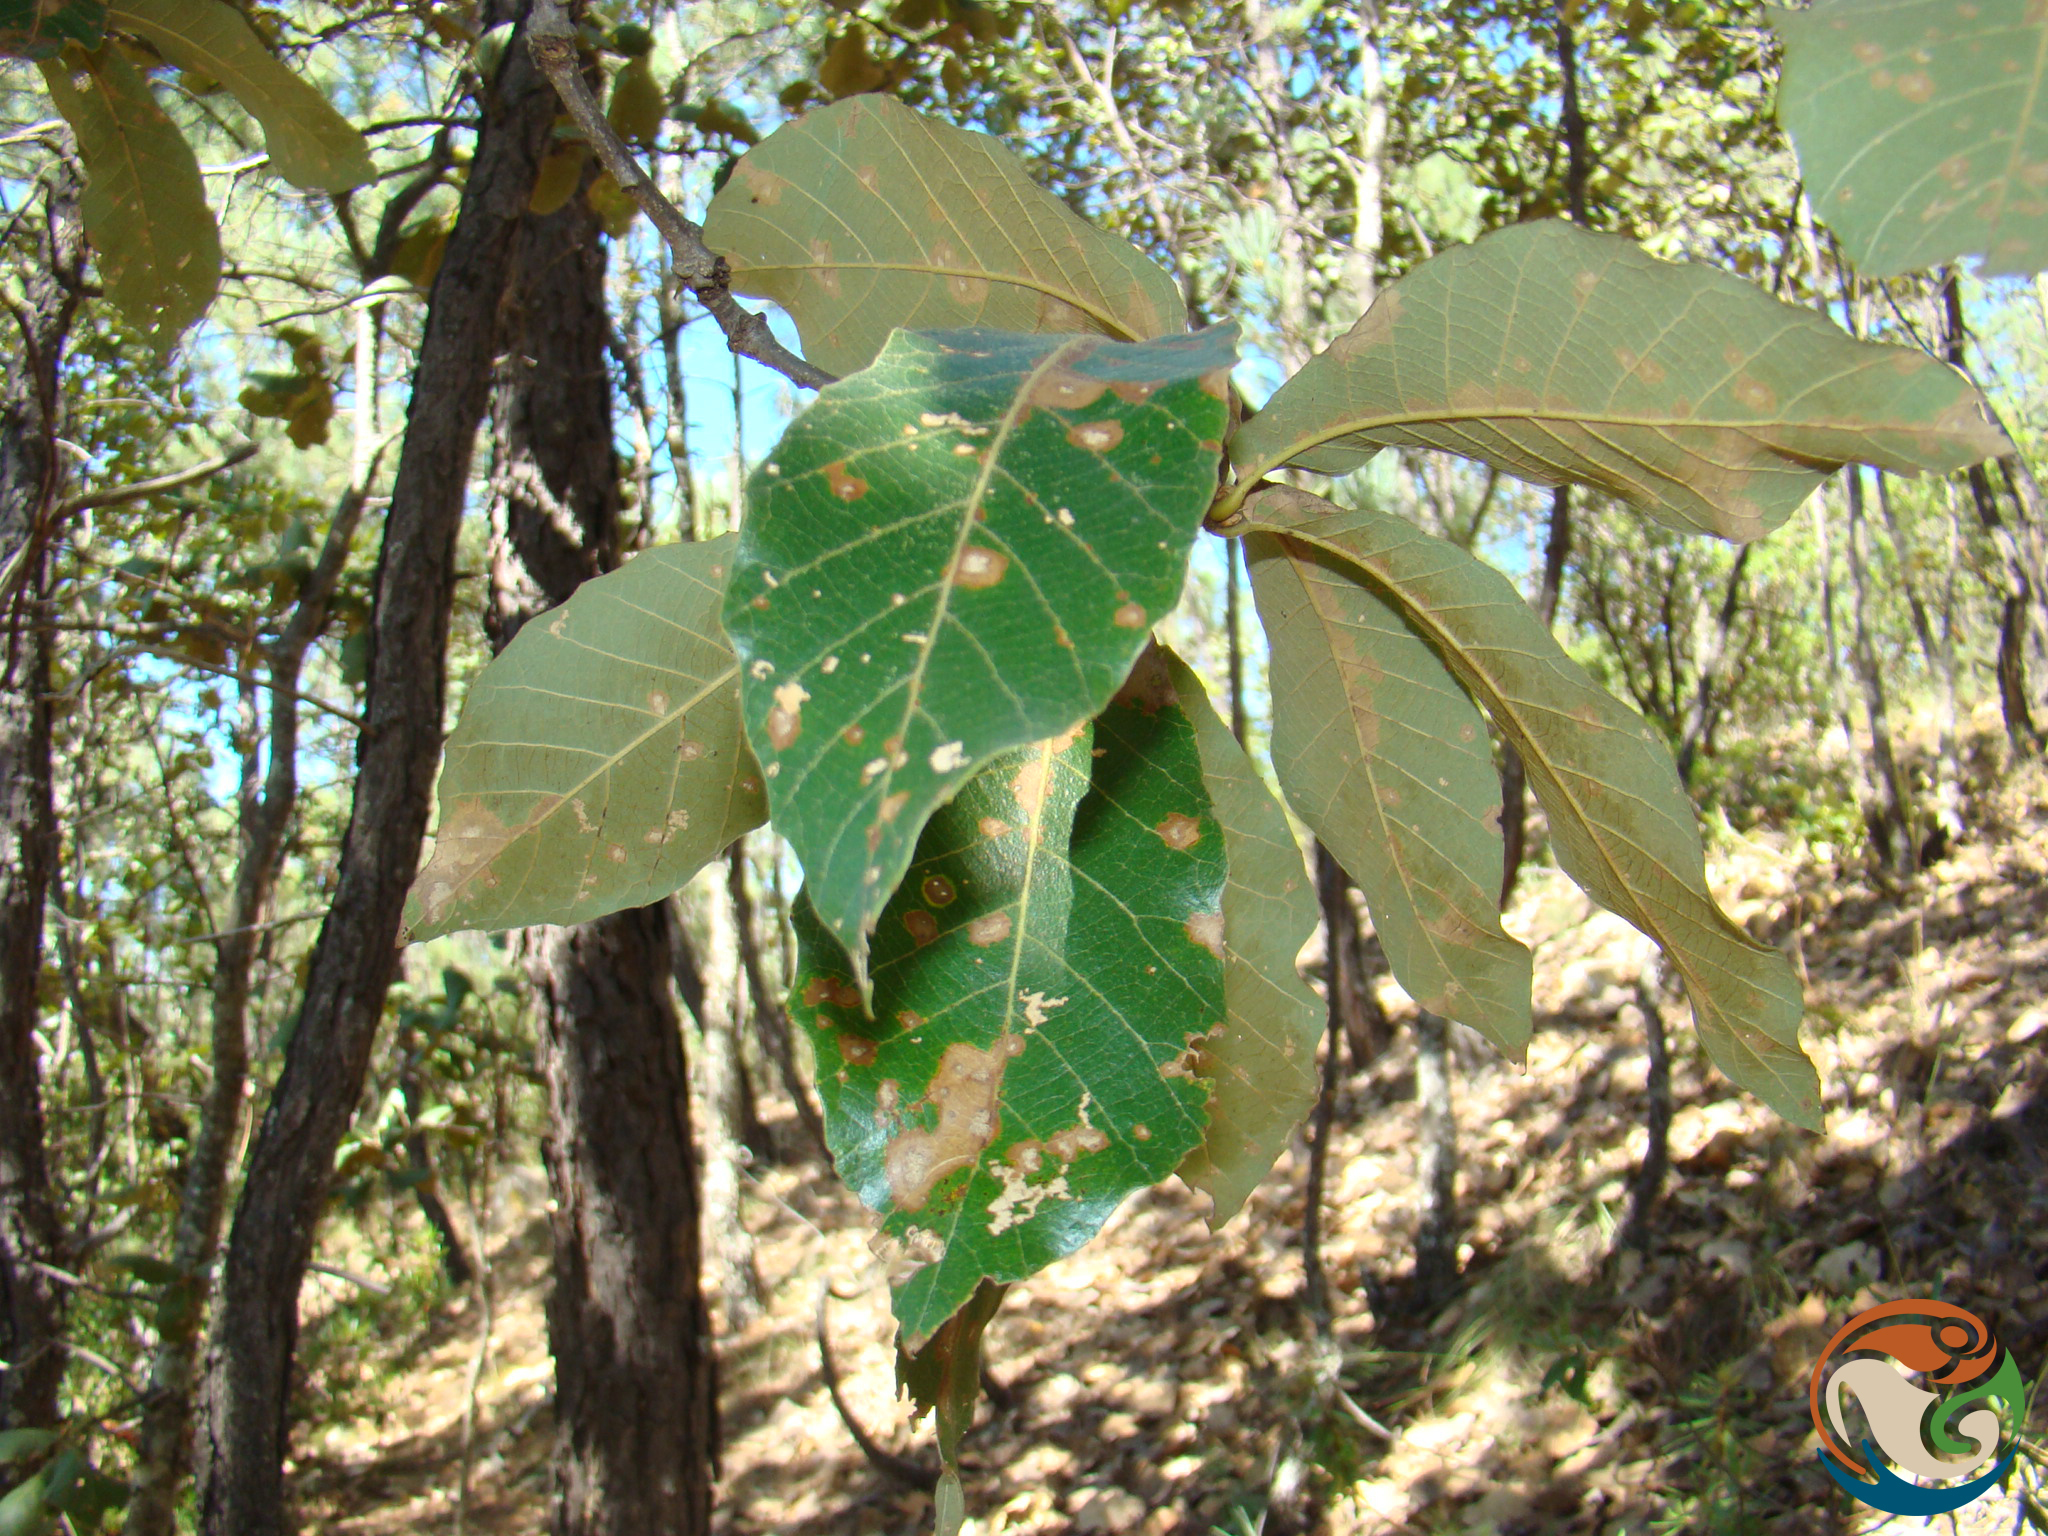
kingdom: Plantae
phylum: Tracheophyta
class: Magnoliopsida
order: Fagales
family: Fagaceae
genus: Quercus
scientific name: Quercus magnoliifolia
